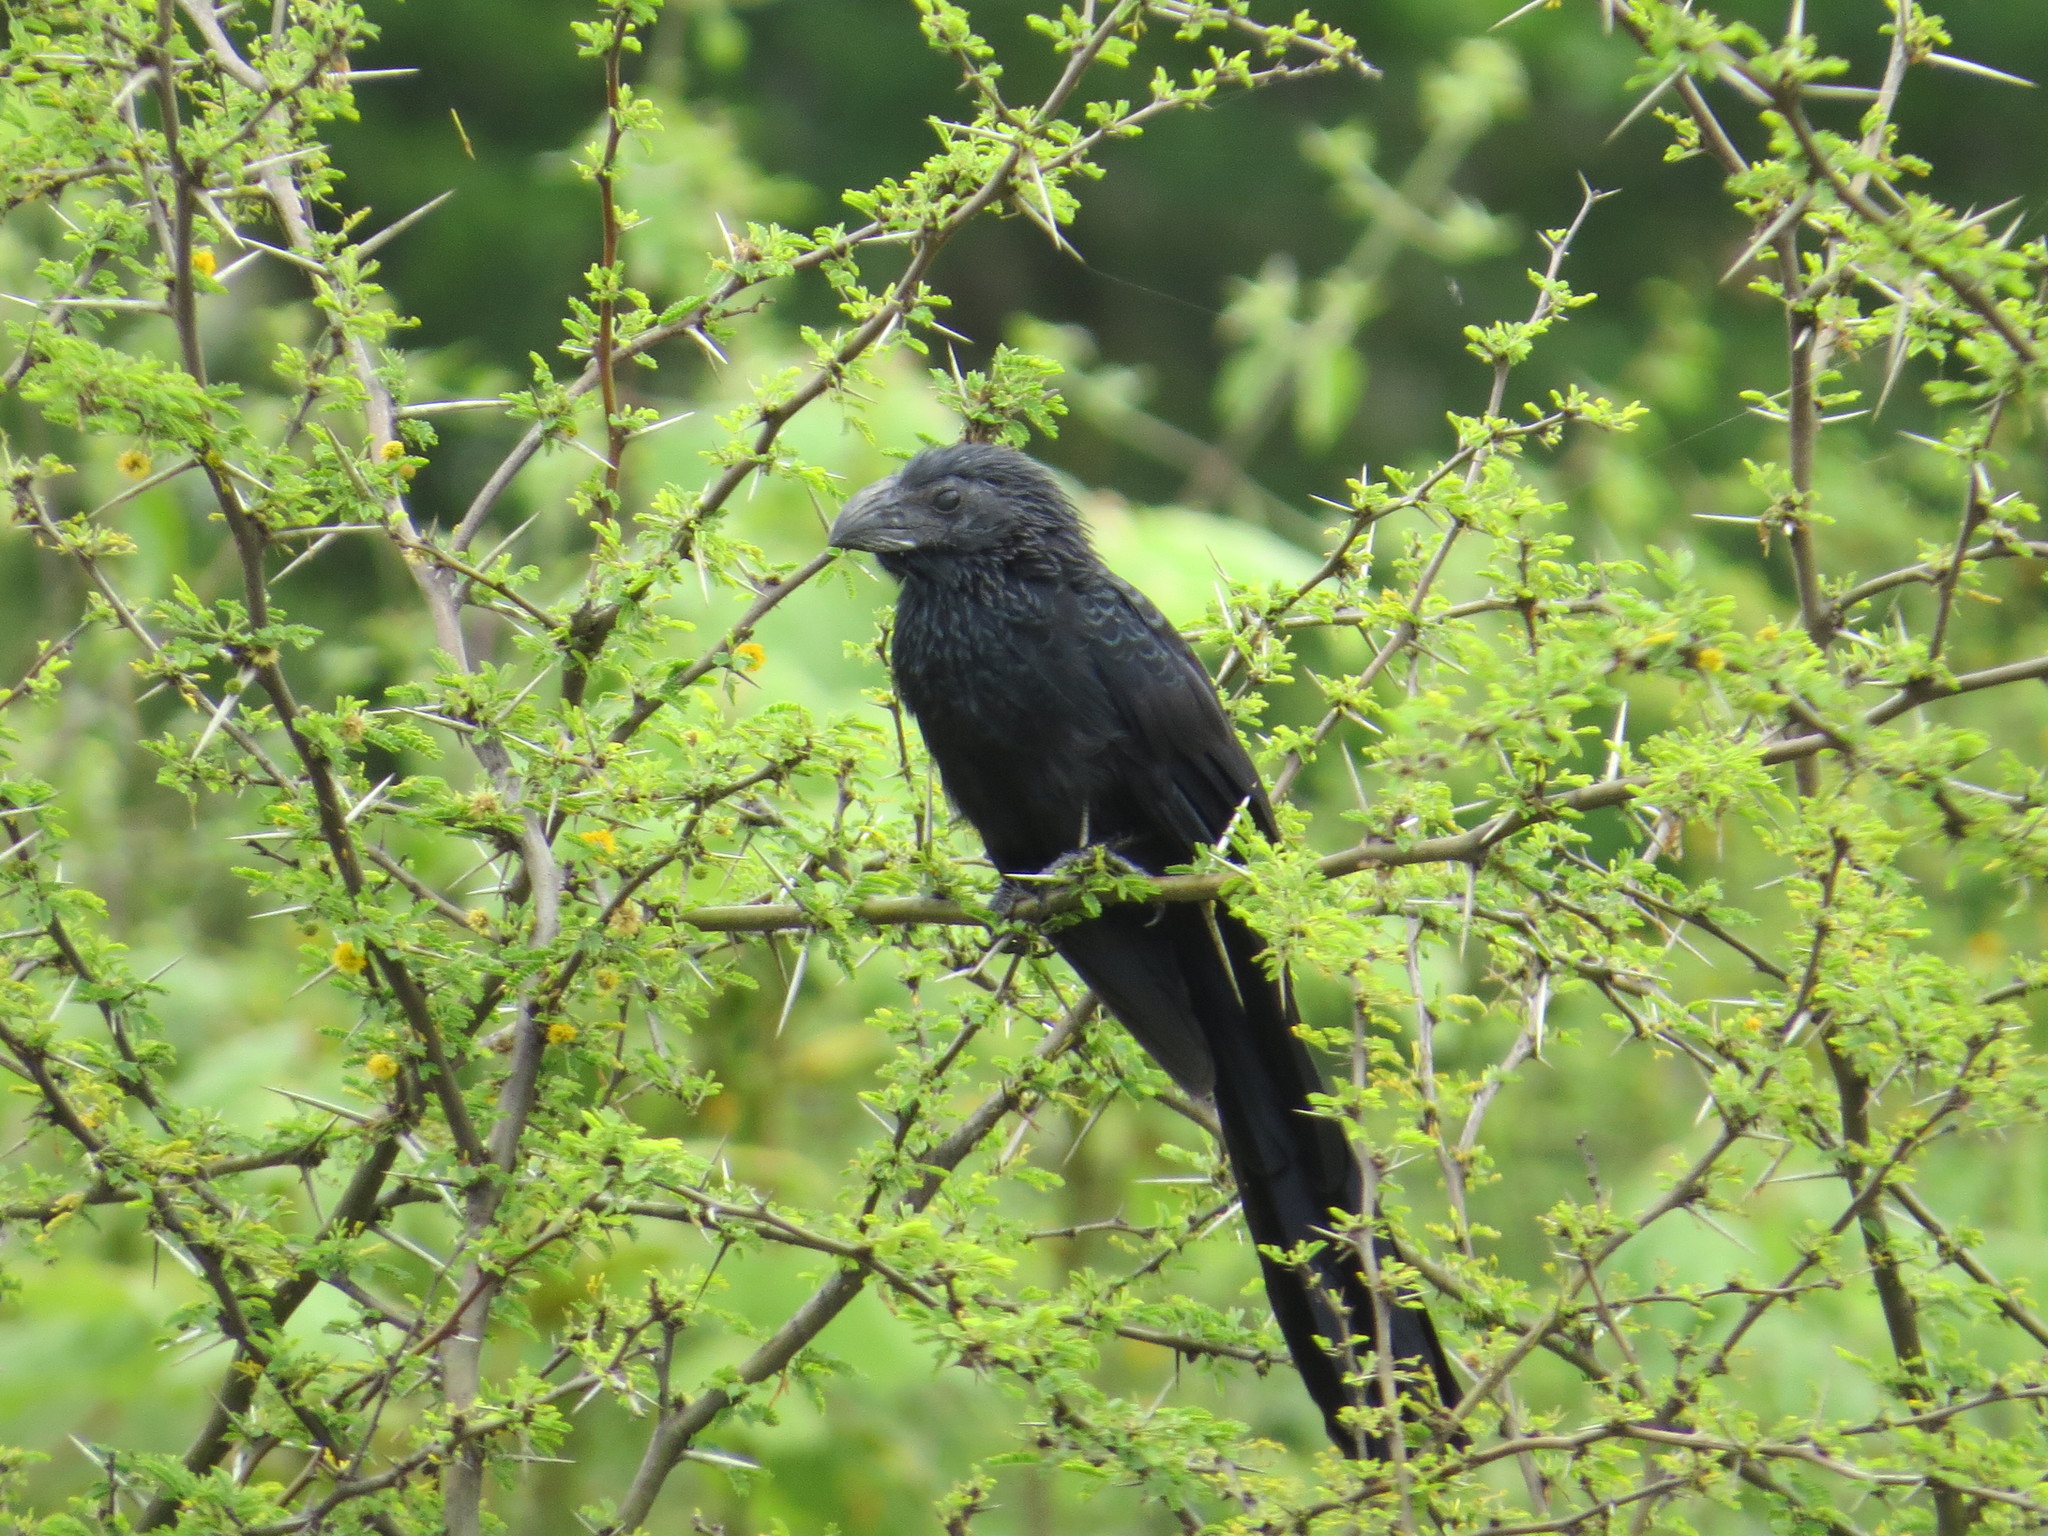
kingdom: Animalia
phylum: Chordata
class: Aves
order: Cuculiformes
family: Cuculidae
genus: Crotophaga
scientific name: Crotophaga sulcirostris
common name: Groove-billed ani
